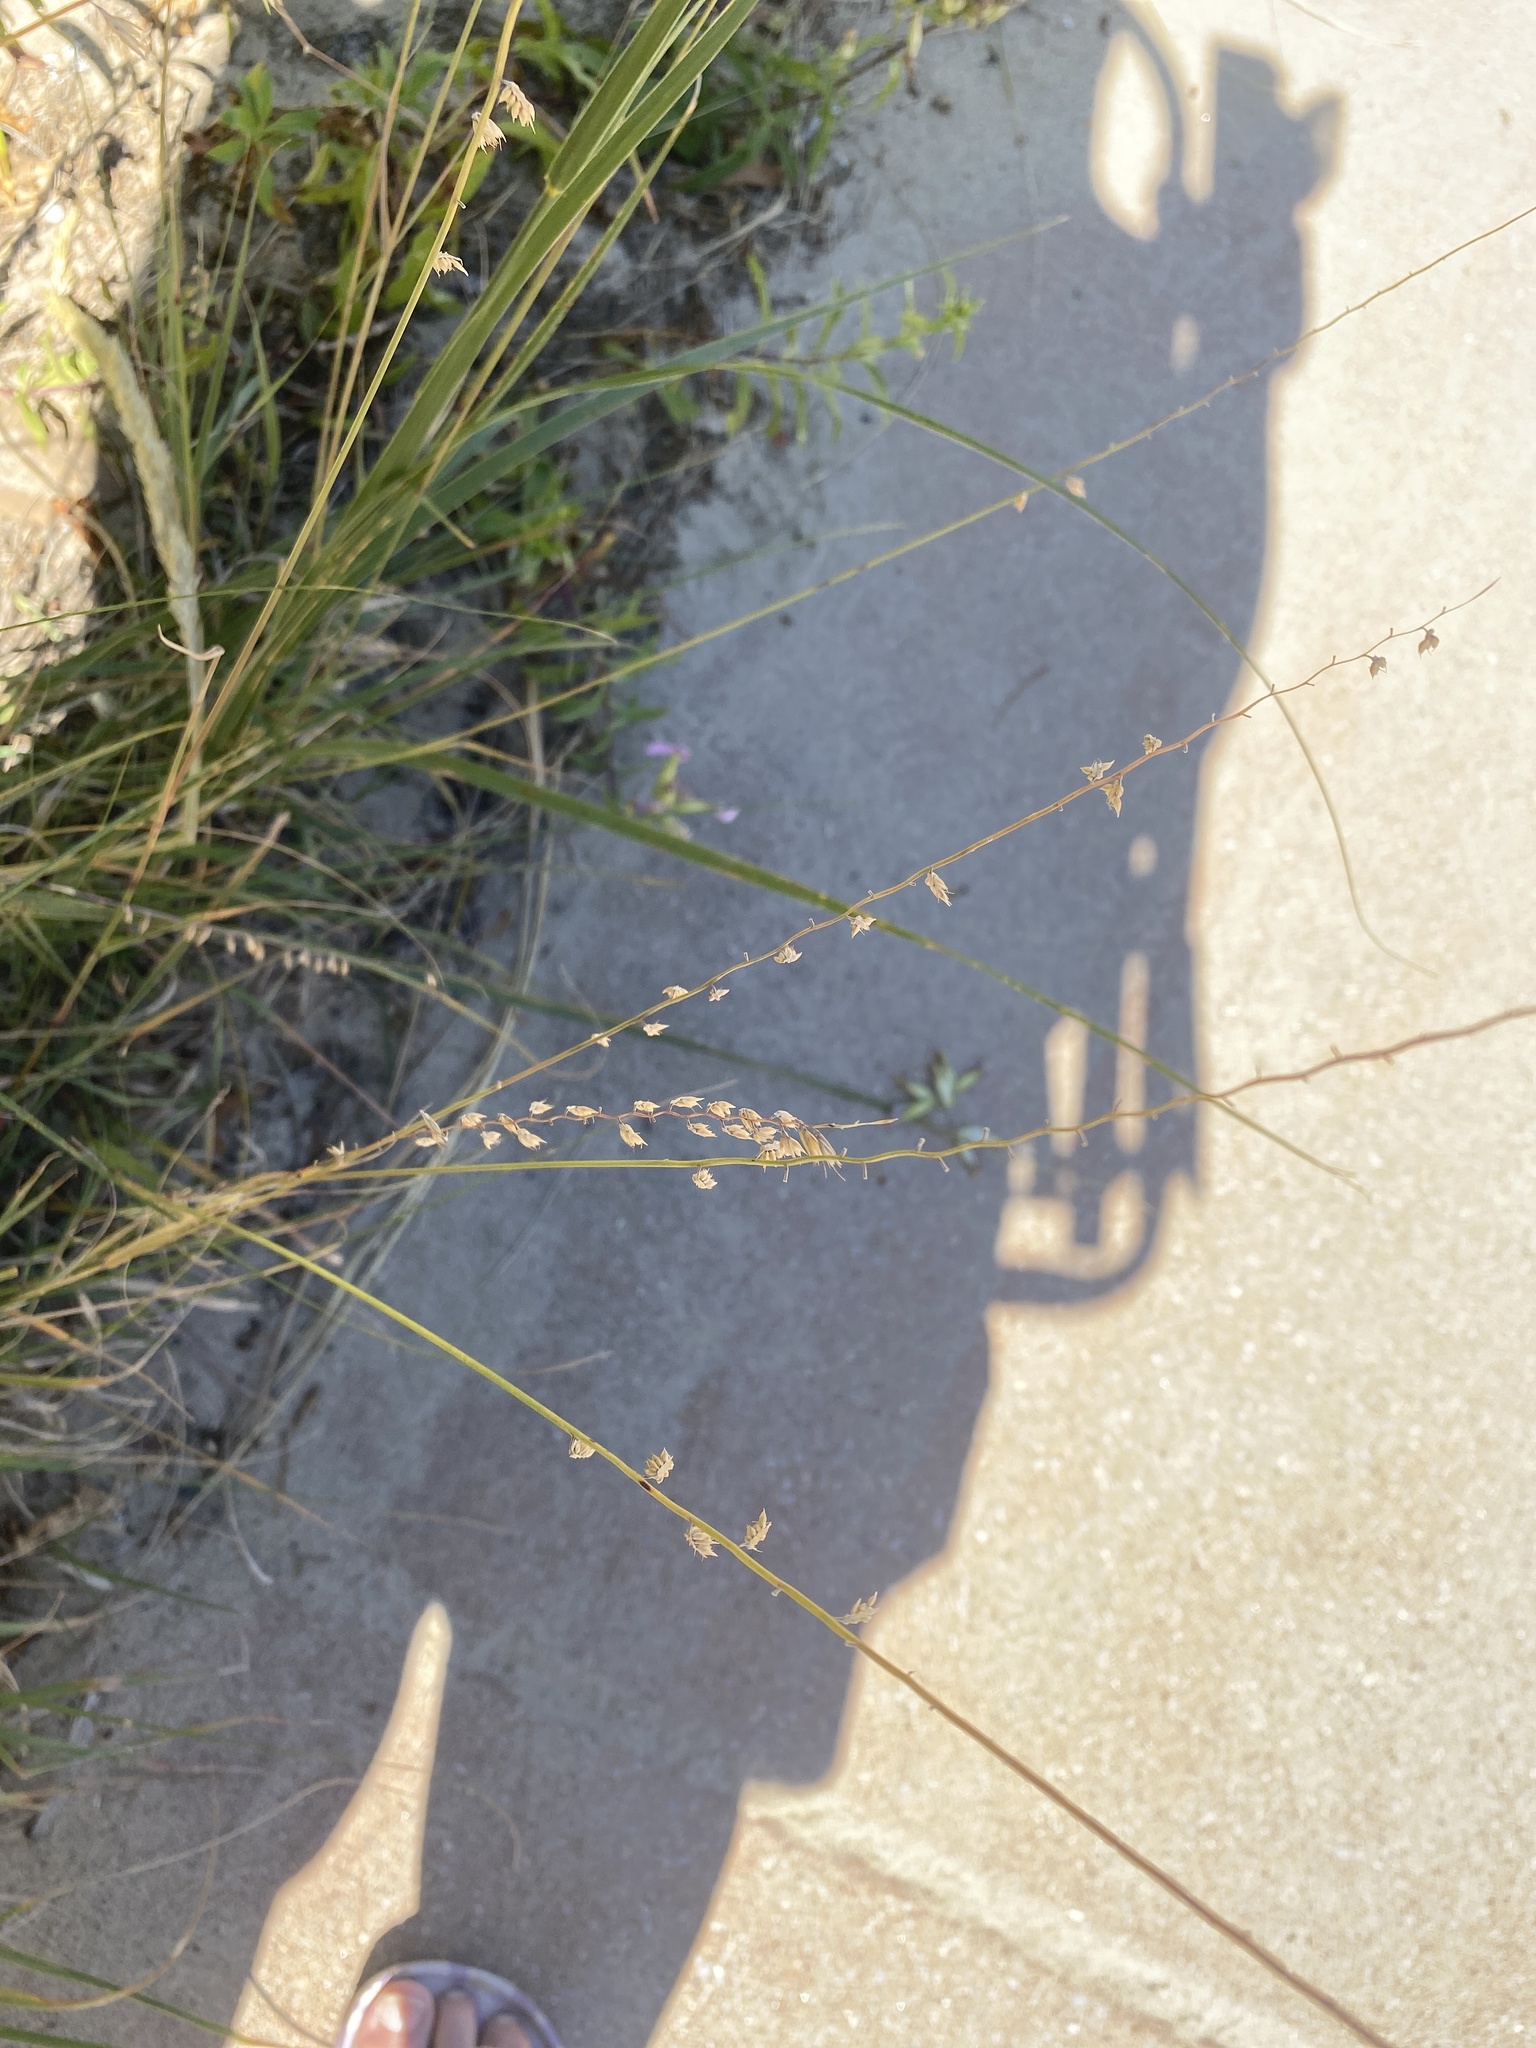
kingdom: Plantae
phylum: Tracheophyta
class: Liliopsida
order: Poales
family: Poaceae
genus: Bouteloua
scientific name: Bouteloua curtipendula
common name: Side-oats grama
